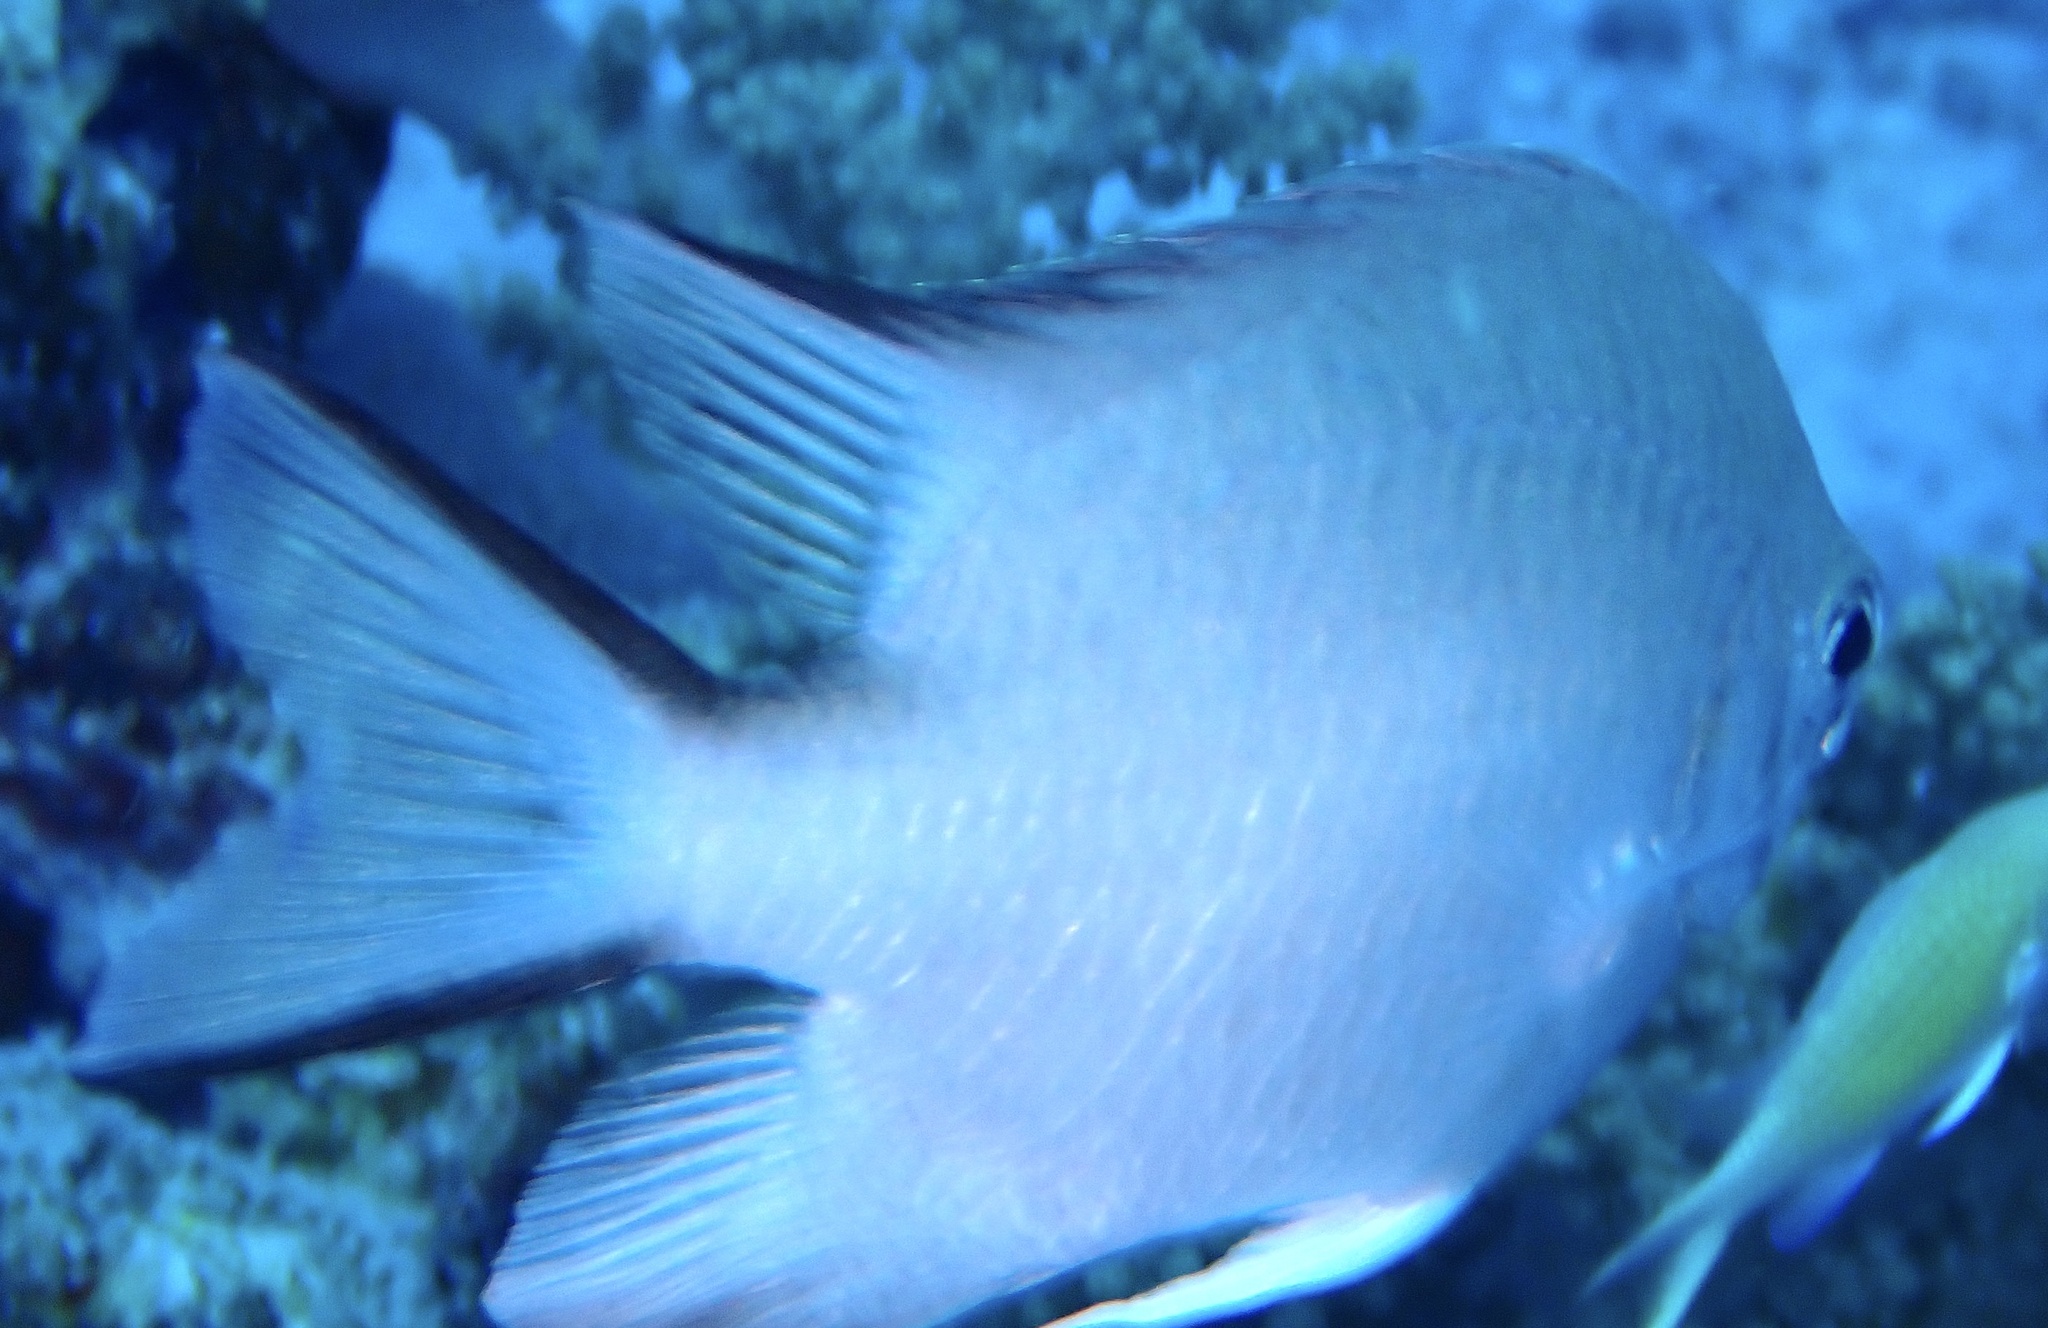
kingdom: Animalia
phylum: Chordata
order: Perciformes
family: Pomacentridae
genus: Amblyglyphidodon
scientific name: Amblyglyphidodon indicus
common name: Maldives damselfish
